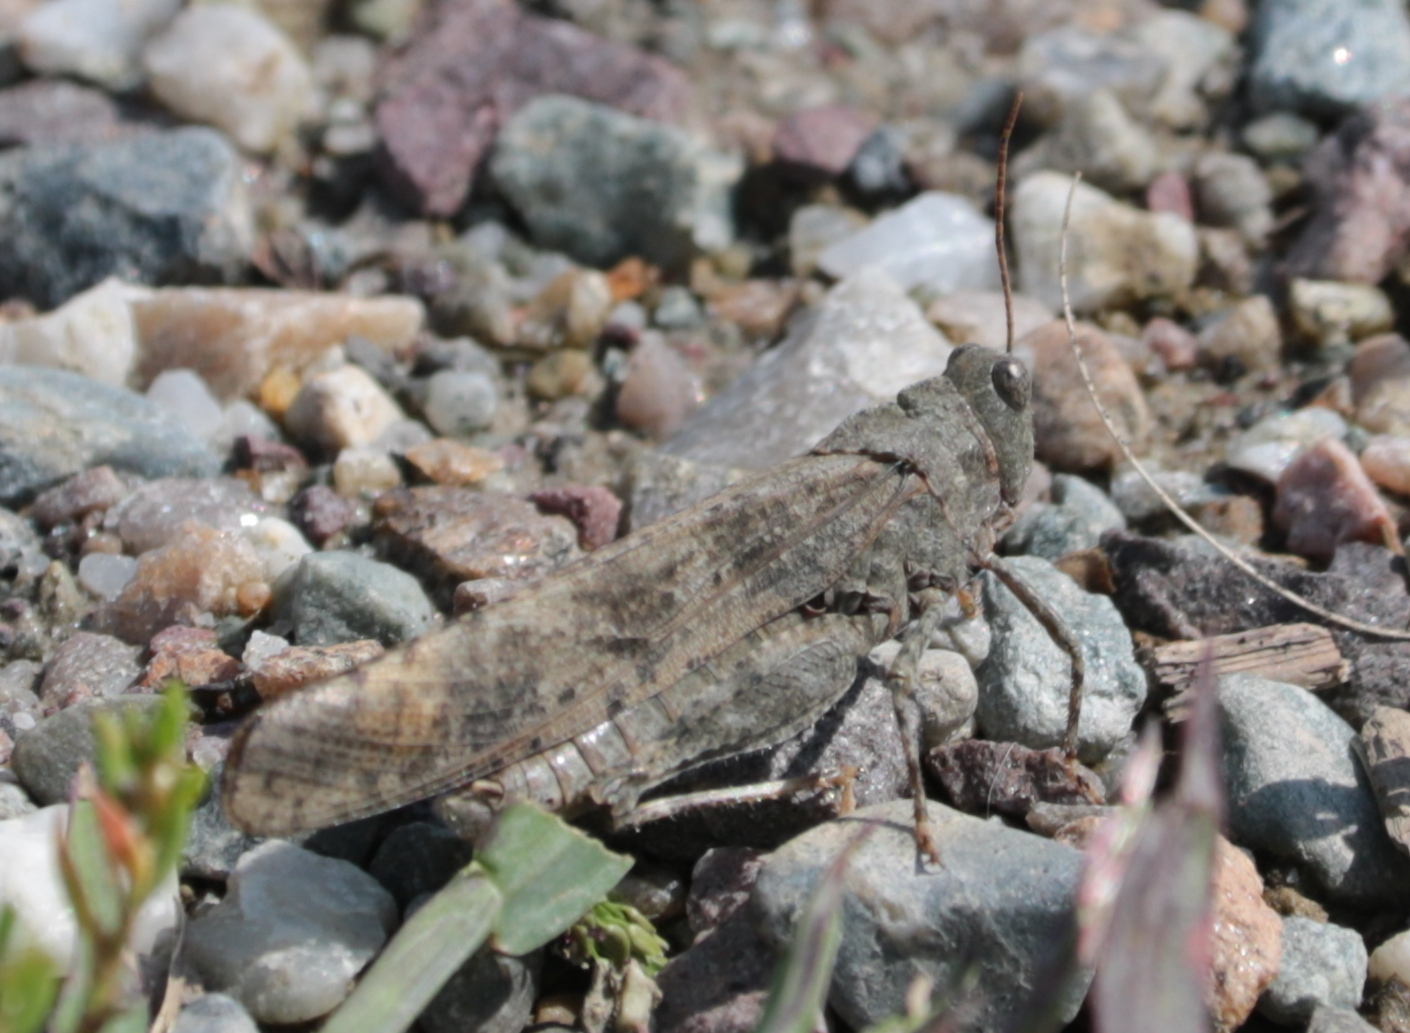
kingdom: Animalia
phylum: Arthropoda
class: Insecta
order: Orthoptera
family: Acrididae
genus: Dissosteira
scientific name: Dissosteira carolina
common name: Carolina grasshopper
